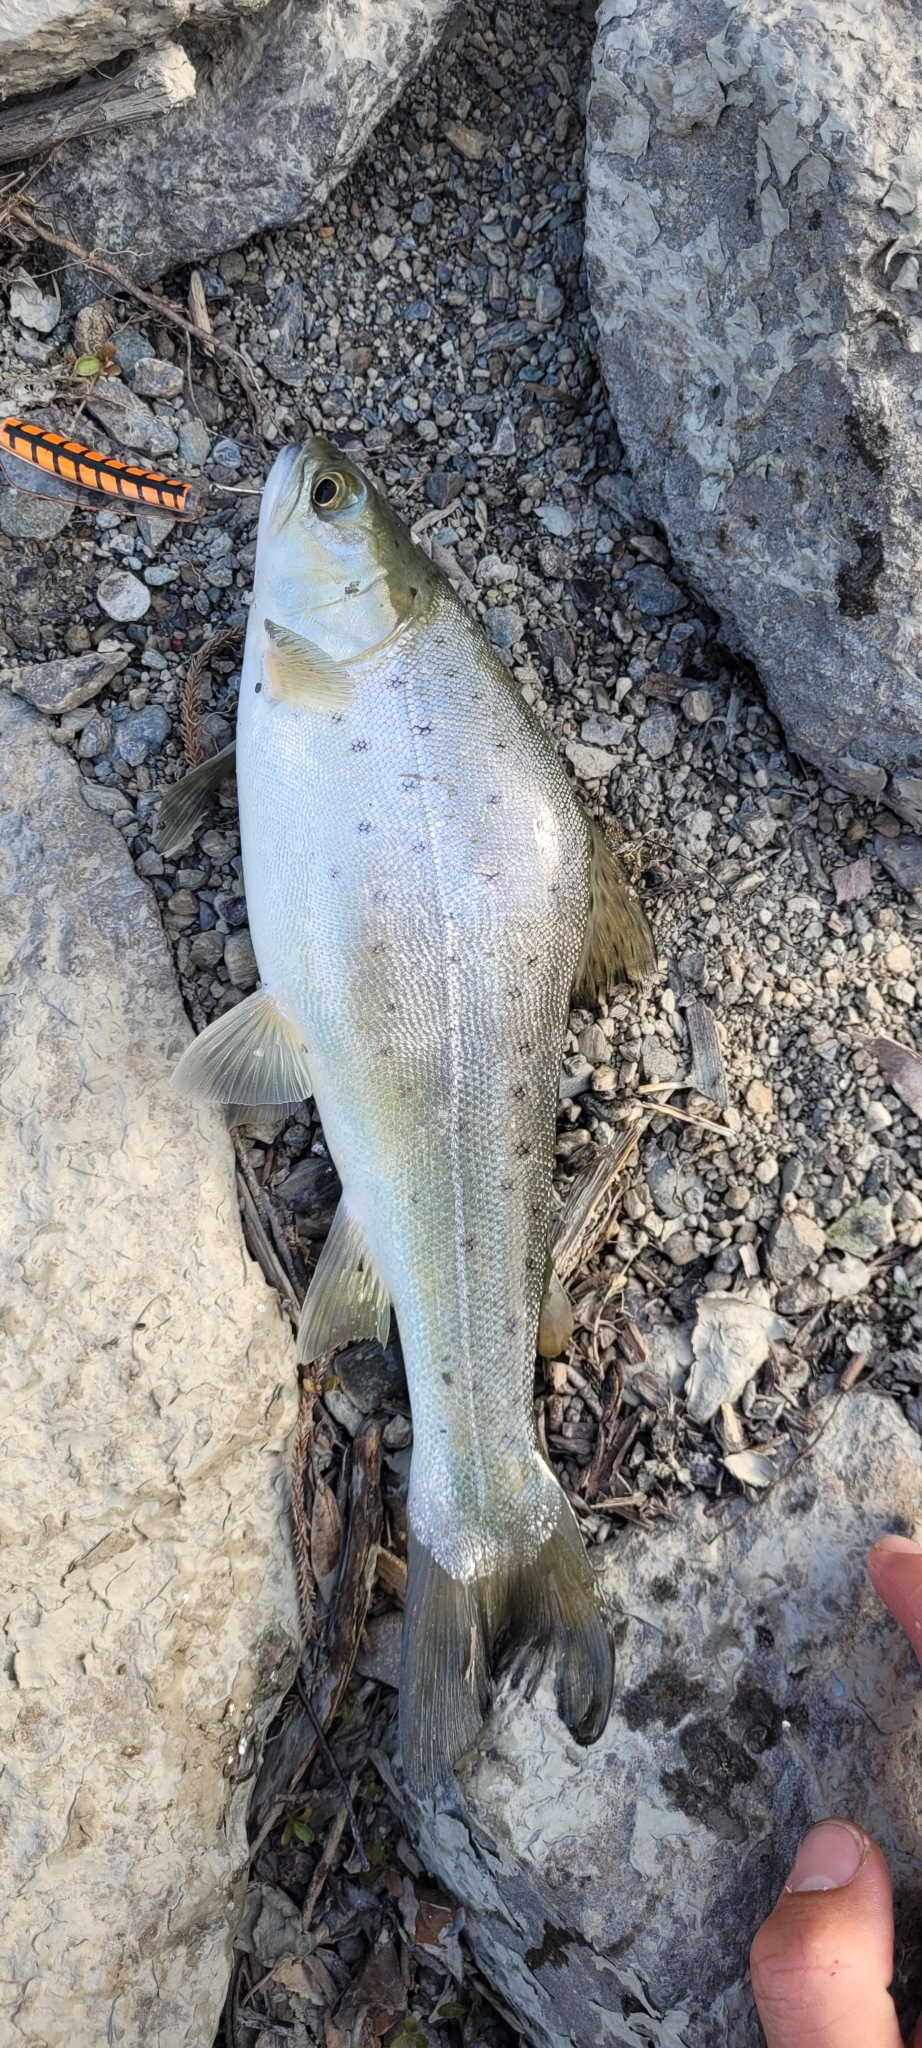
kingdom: Animalia
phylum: Chordata
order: Salmoniformes
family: Salmonidae
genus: Salmo
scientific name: Salmo trutta
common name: Brown trout
